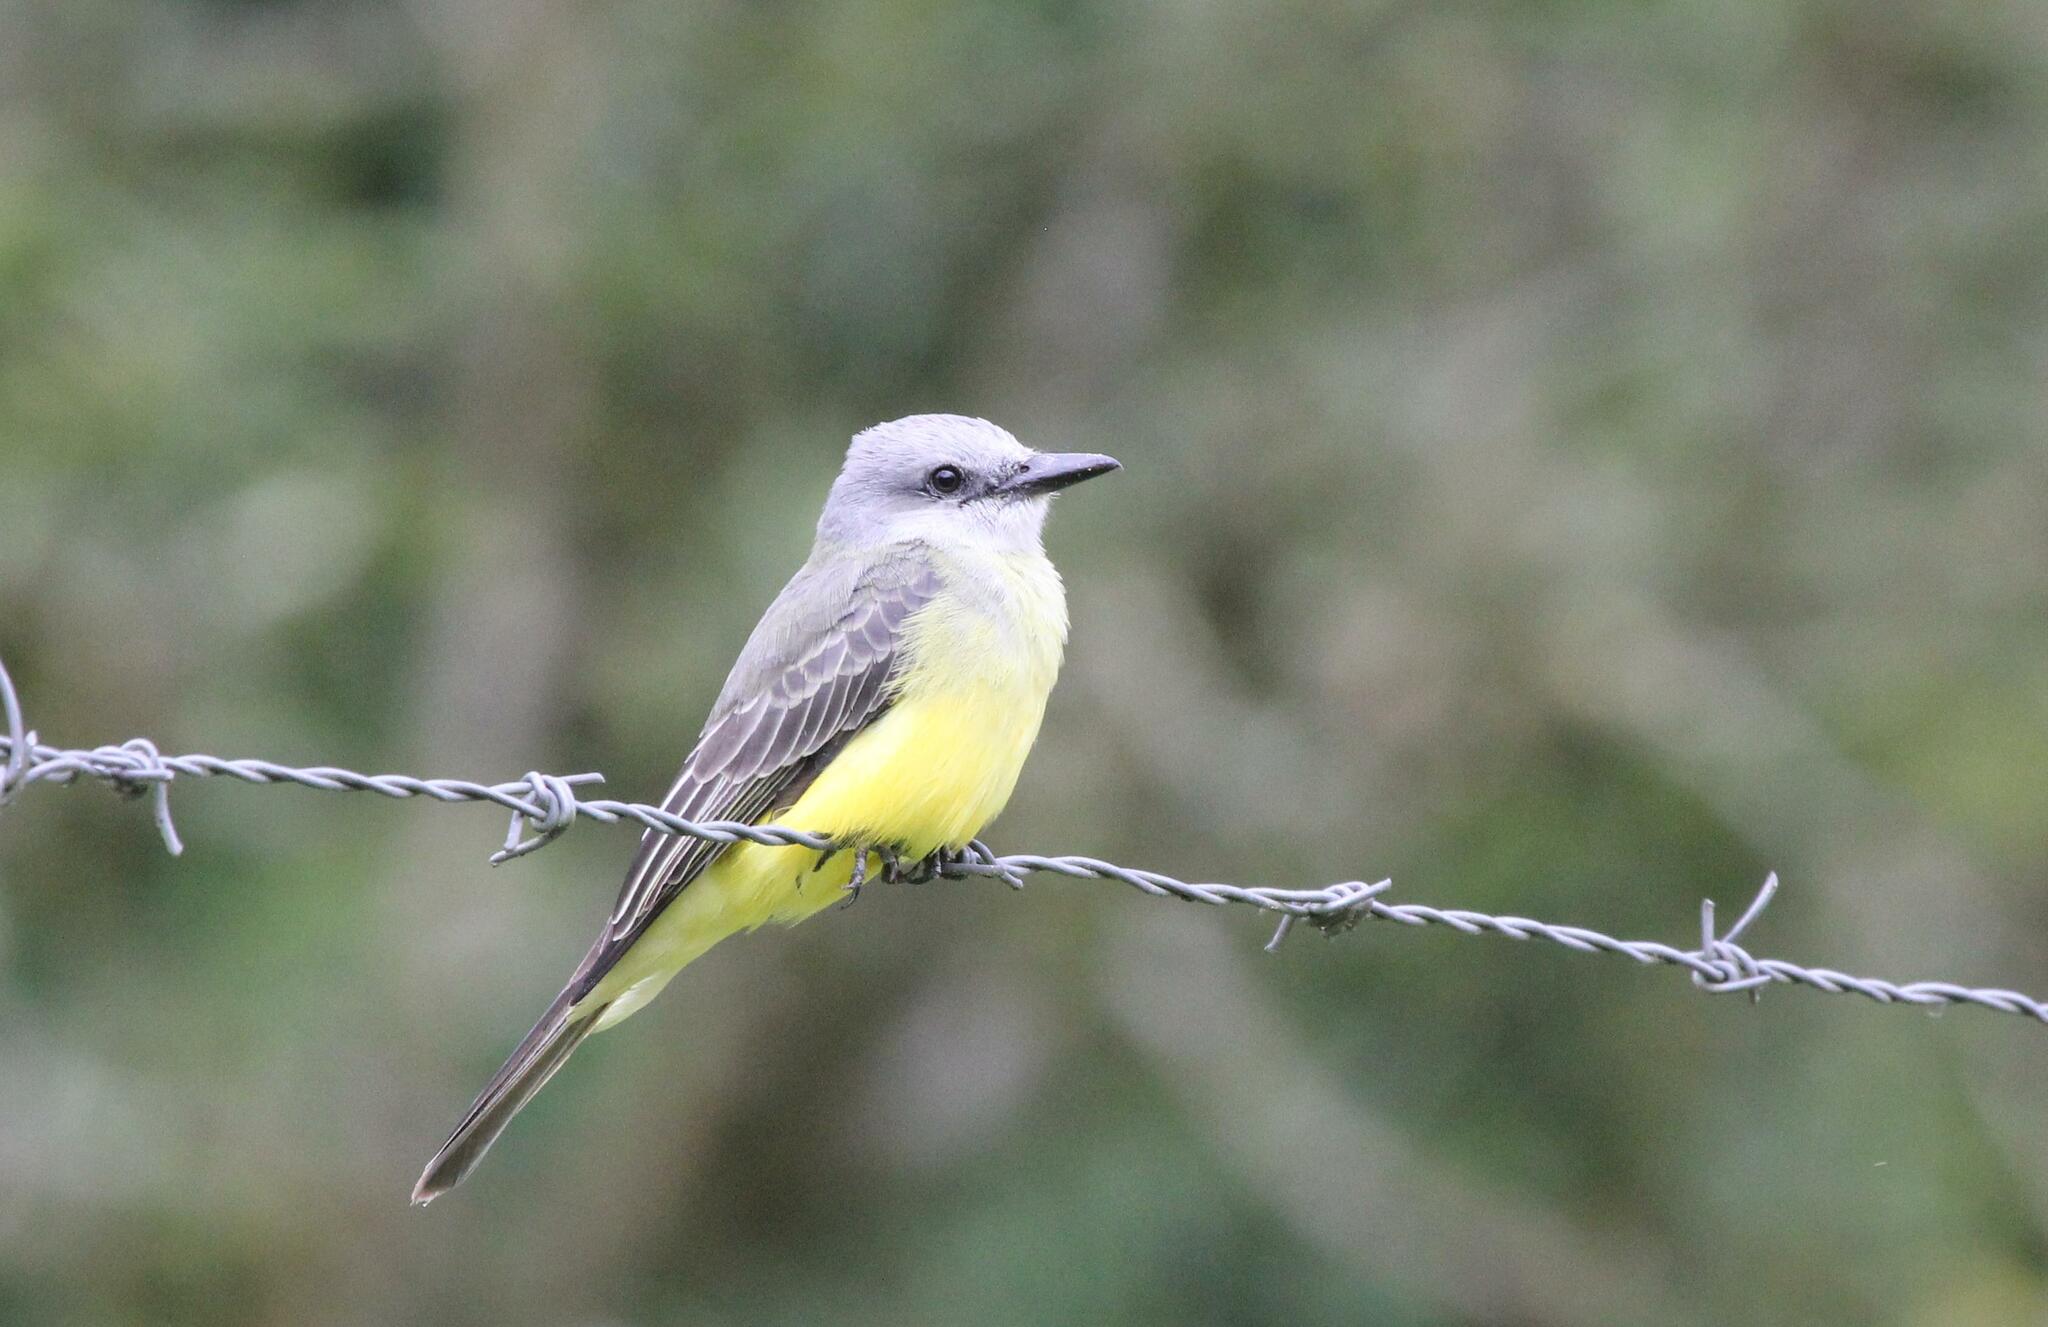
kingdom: Animalia
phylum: Chordata
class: Aves
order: Passeriformes
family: Tyrannidae
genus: Tyrannus
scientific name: Tyrannus melancholicus
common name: Tropical kingbird
